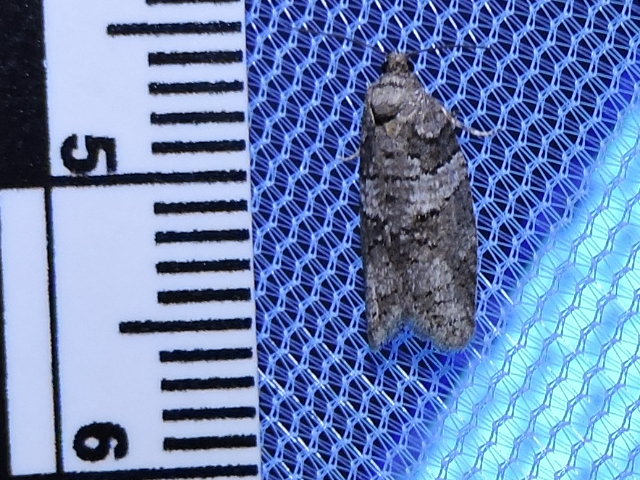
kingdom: Animalia
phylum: Arthropoda
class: Insecta
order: Lepidoptera
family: Tortricidae
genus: Decodes
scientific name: Decodes basiplagana
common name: Gray-marked tortricid
